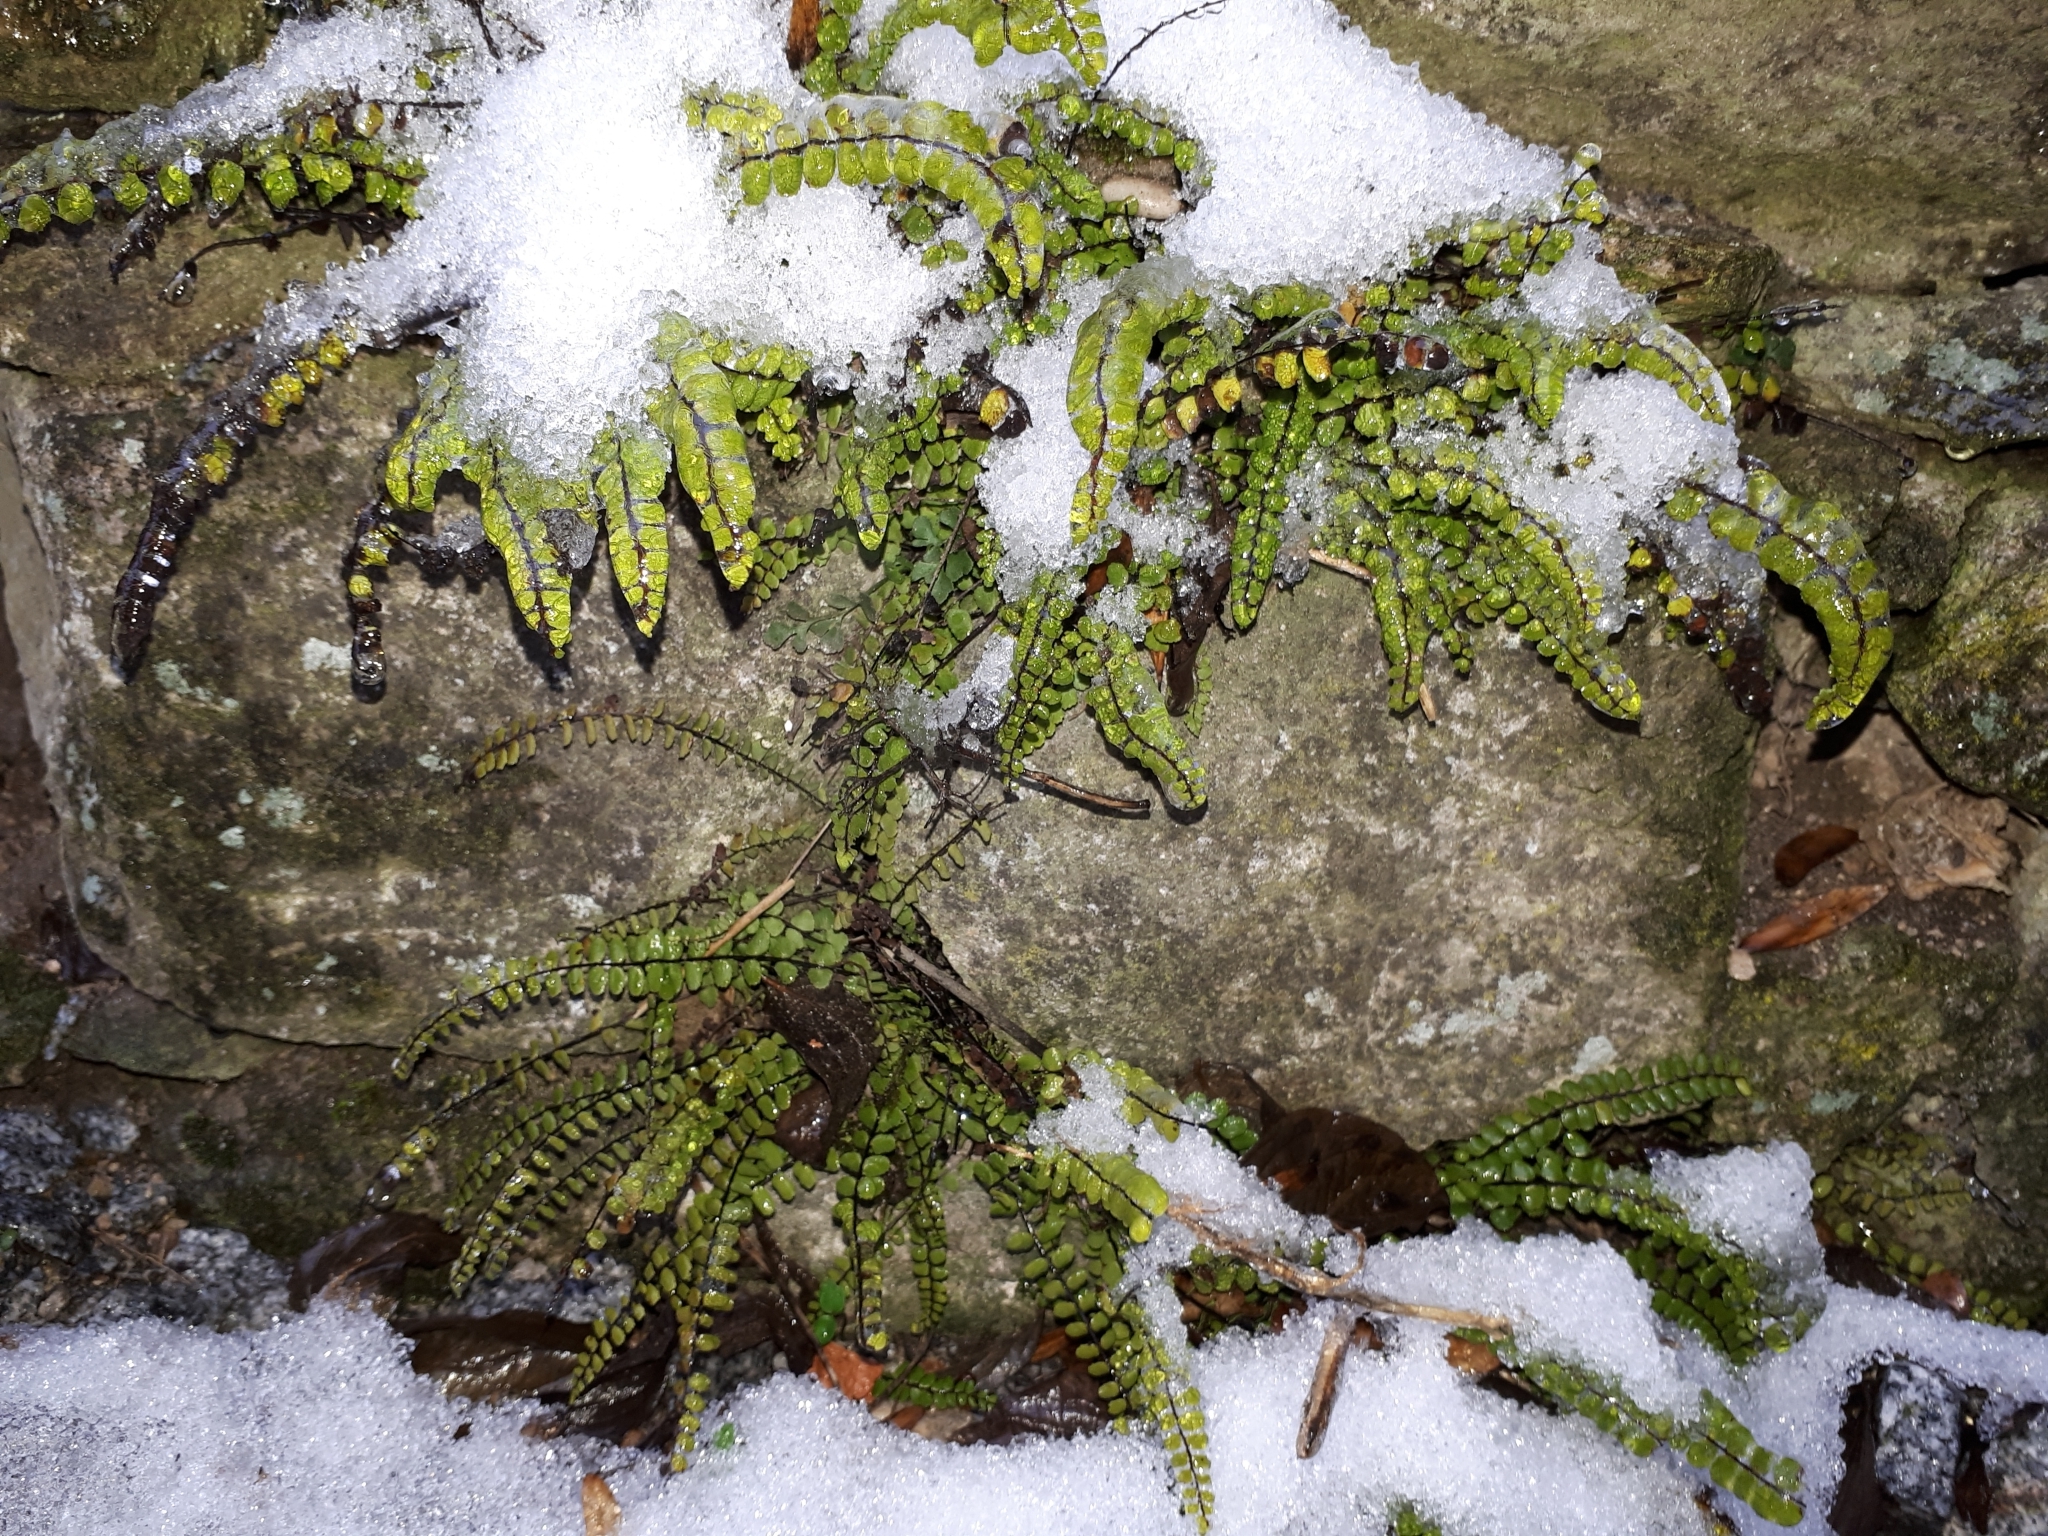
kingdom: Plantae
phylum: Tracheophyta
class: Polypodiopsida
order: Polypodiales
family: Aspleniaceae
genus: Asplenium
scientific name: Asplenium trichomanes
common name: Maidenhair spleenwort
